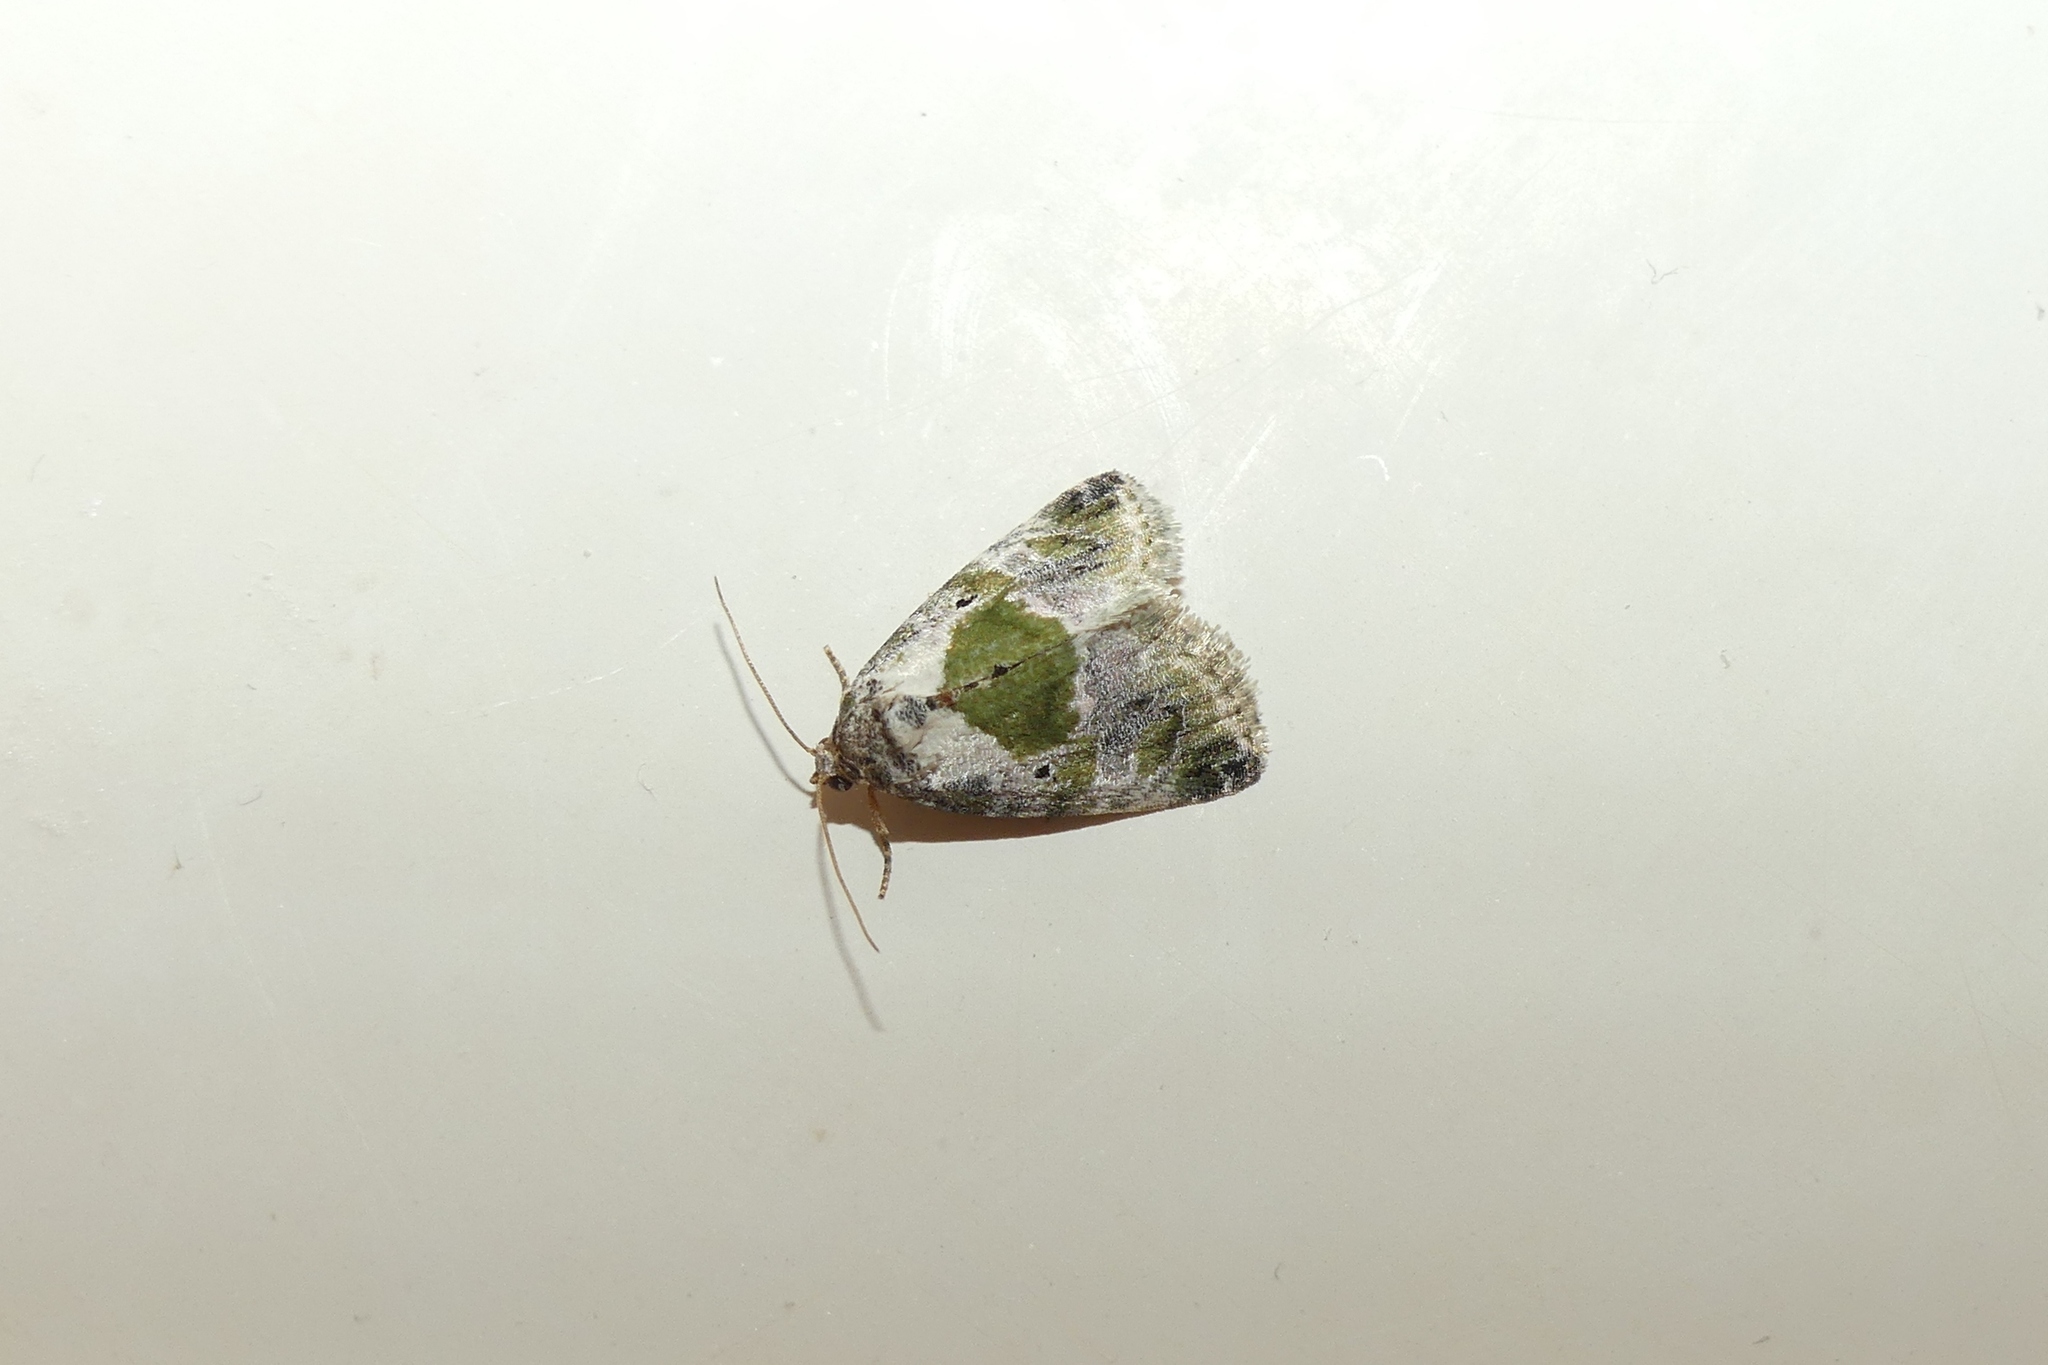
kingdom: Animalia
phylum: Arthropoda
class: Insecta
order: Lepidoptera
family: Noctuidae
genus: Maliattha
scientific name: Maliattha synochitis
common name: Black-dotted glyph
